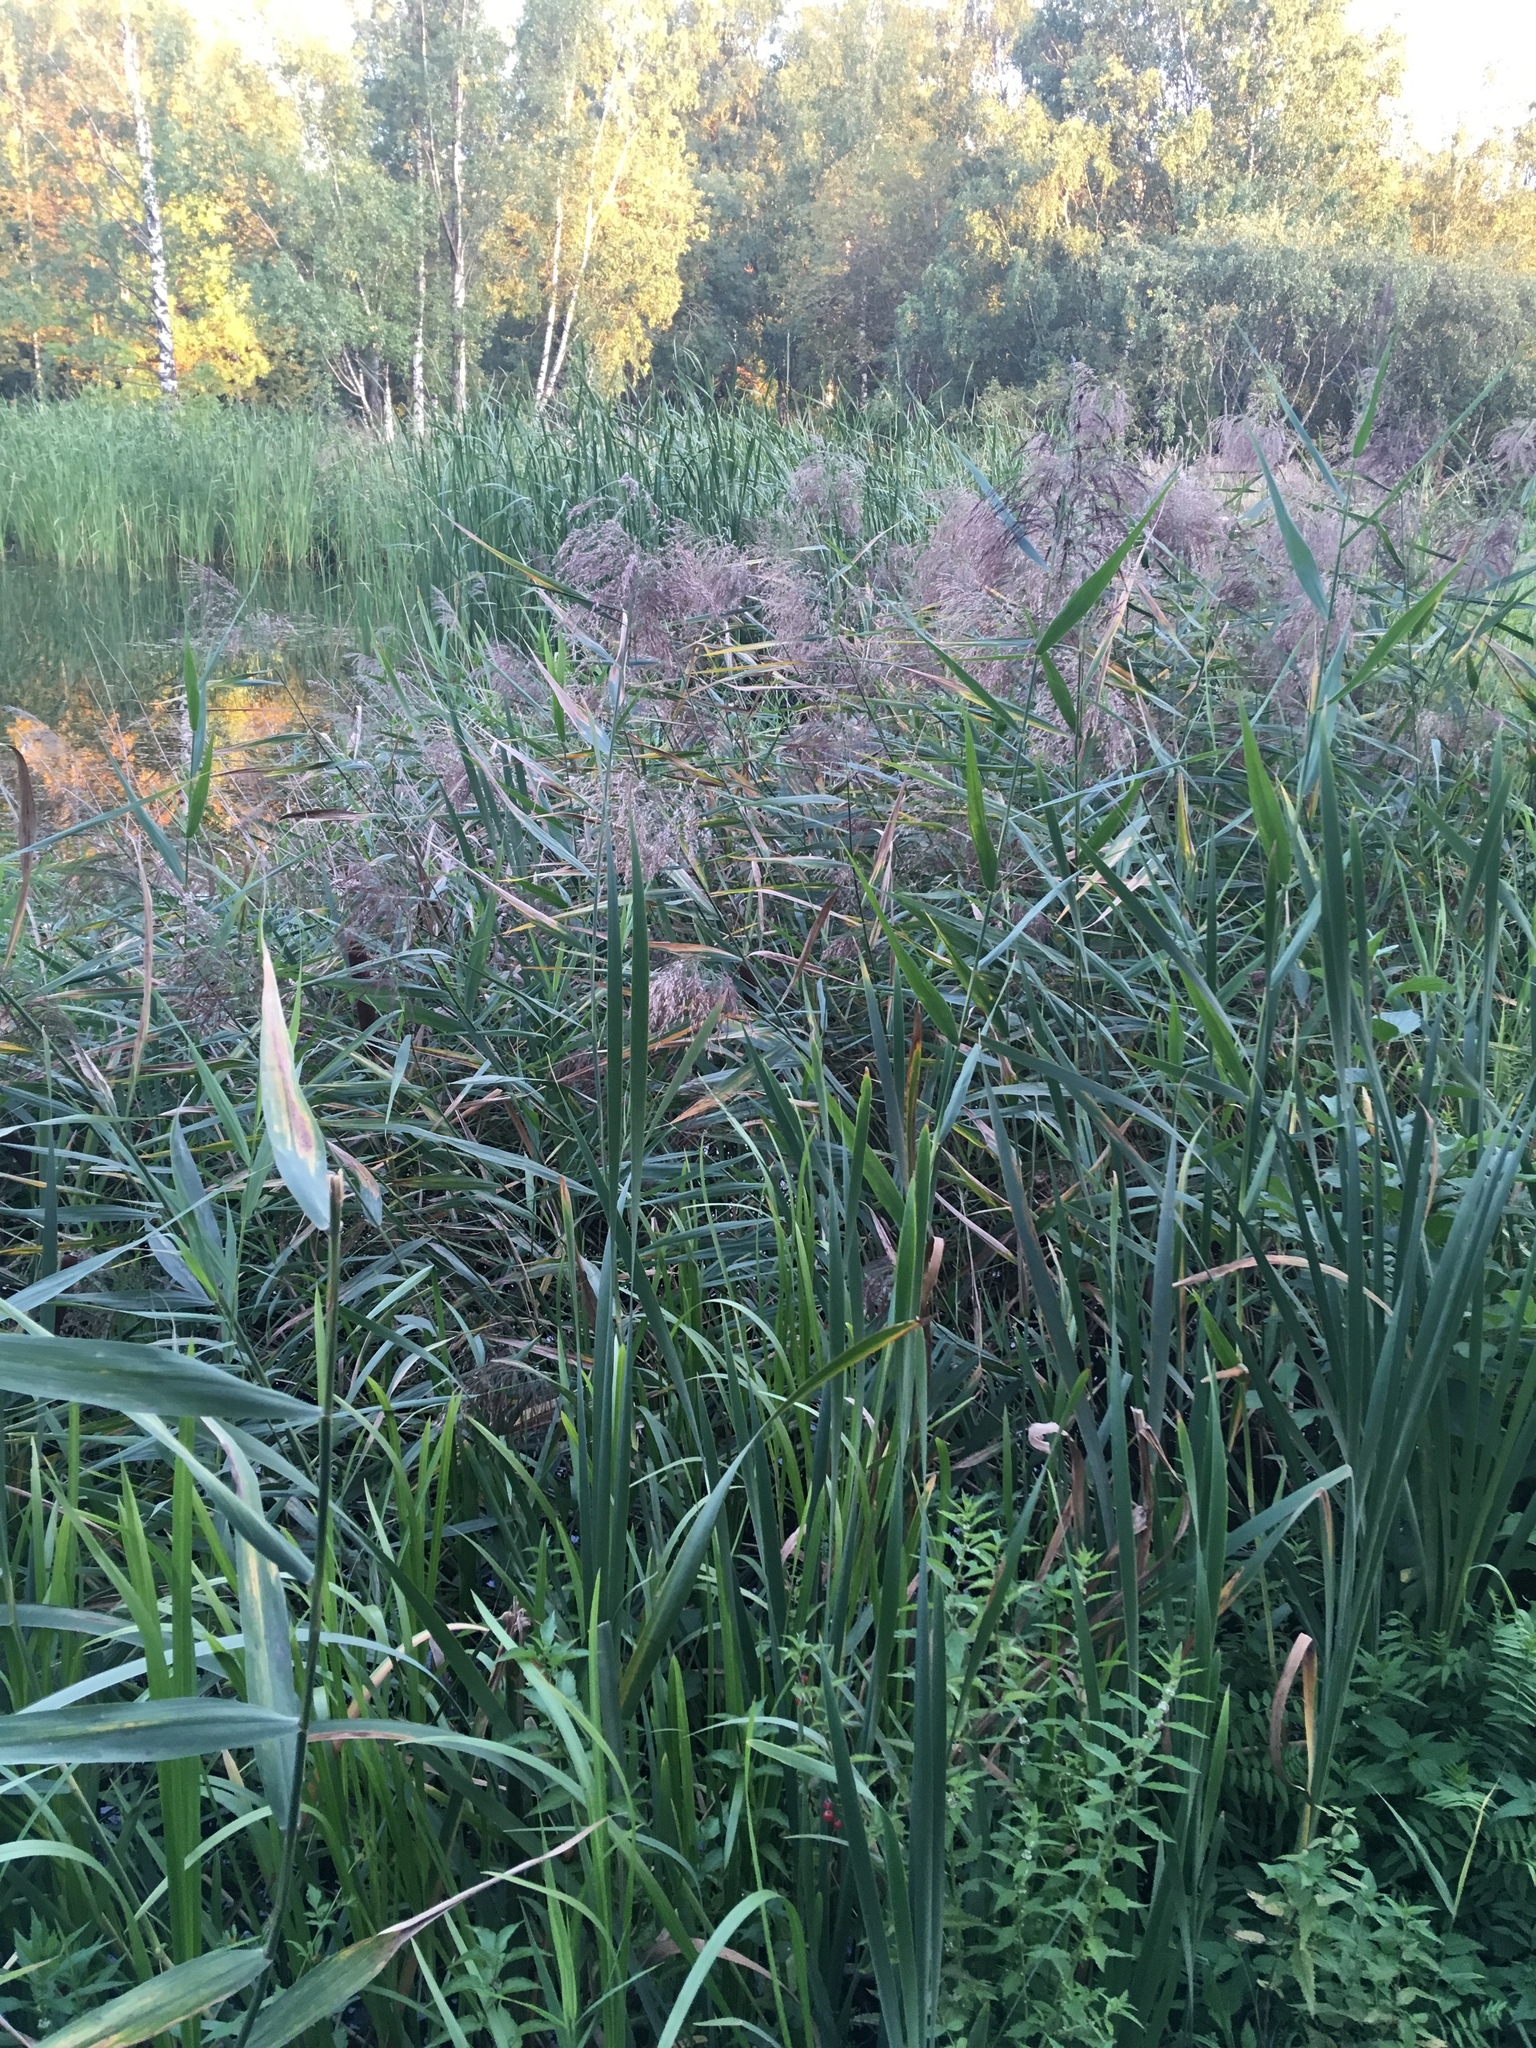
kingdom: Plantae
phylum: Tracheophyta
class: Liliopsida
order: Poales
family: Poaceae
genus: Phragmites
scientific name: Phragmites australis
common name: Common reed
